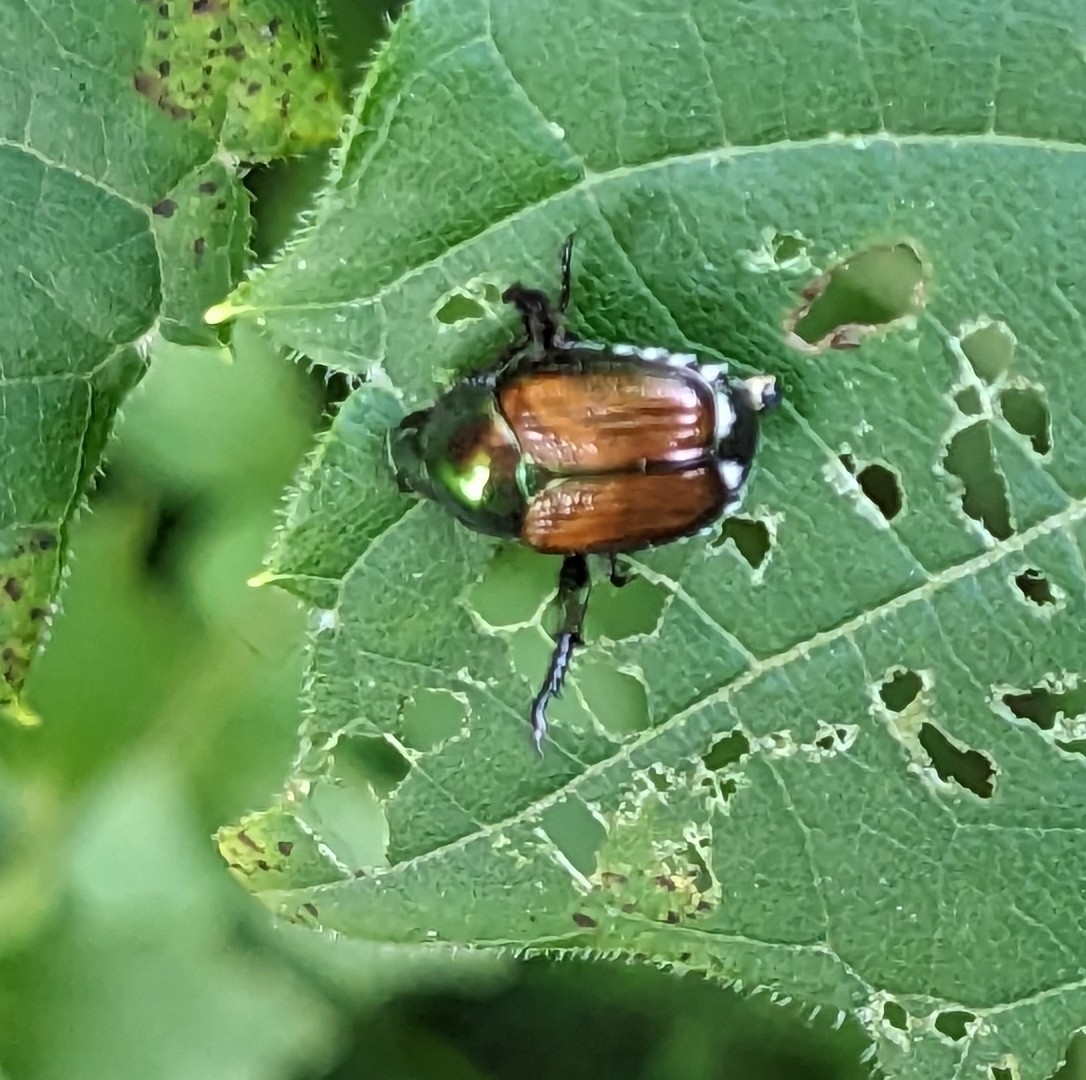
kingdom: Animalia
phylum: Arthropoda
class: Insecta
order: Coleoptera
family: Scarabaeidae
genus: Popillia
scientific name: Popillia japonica
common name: Japanese beetle
